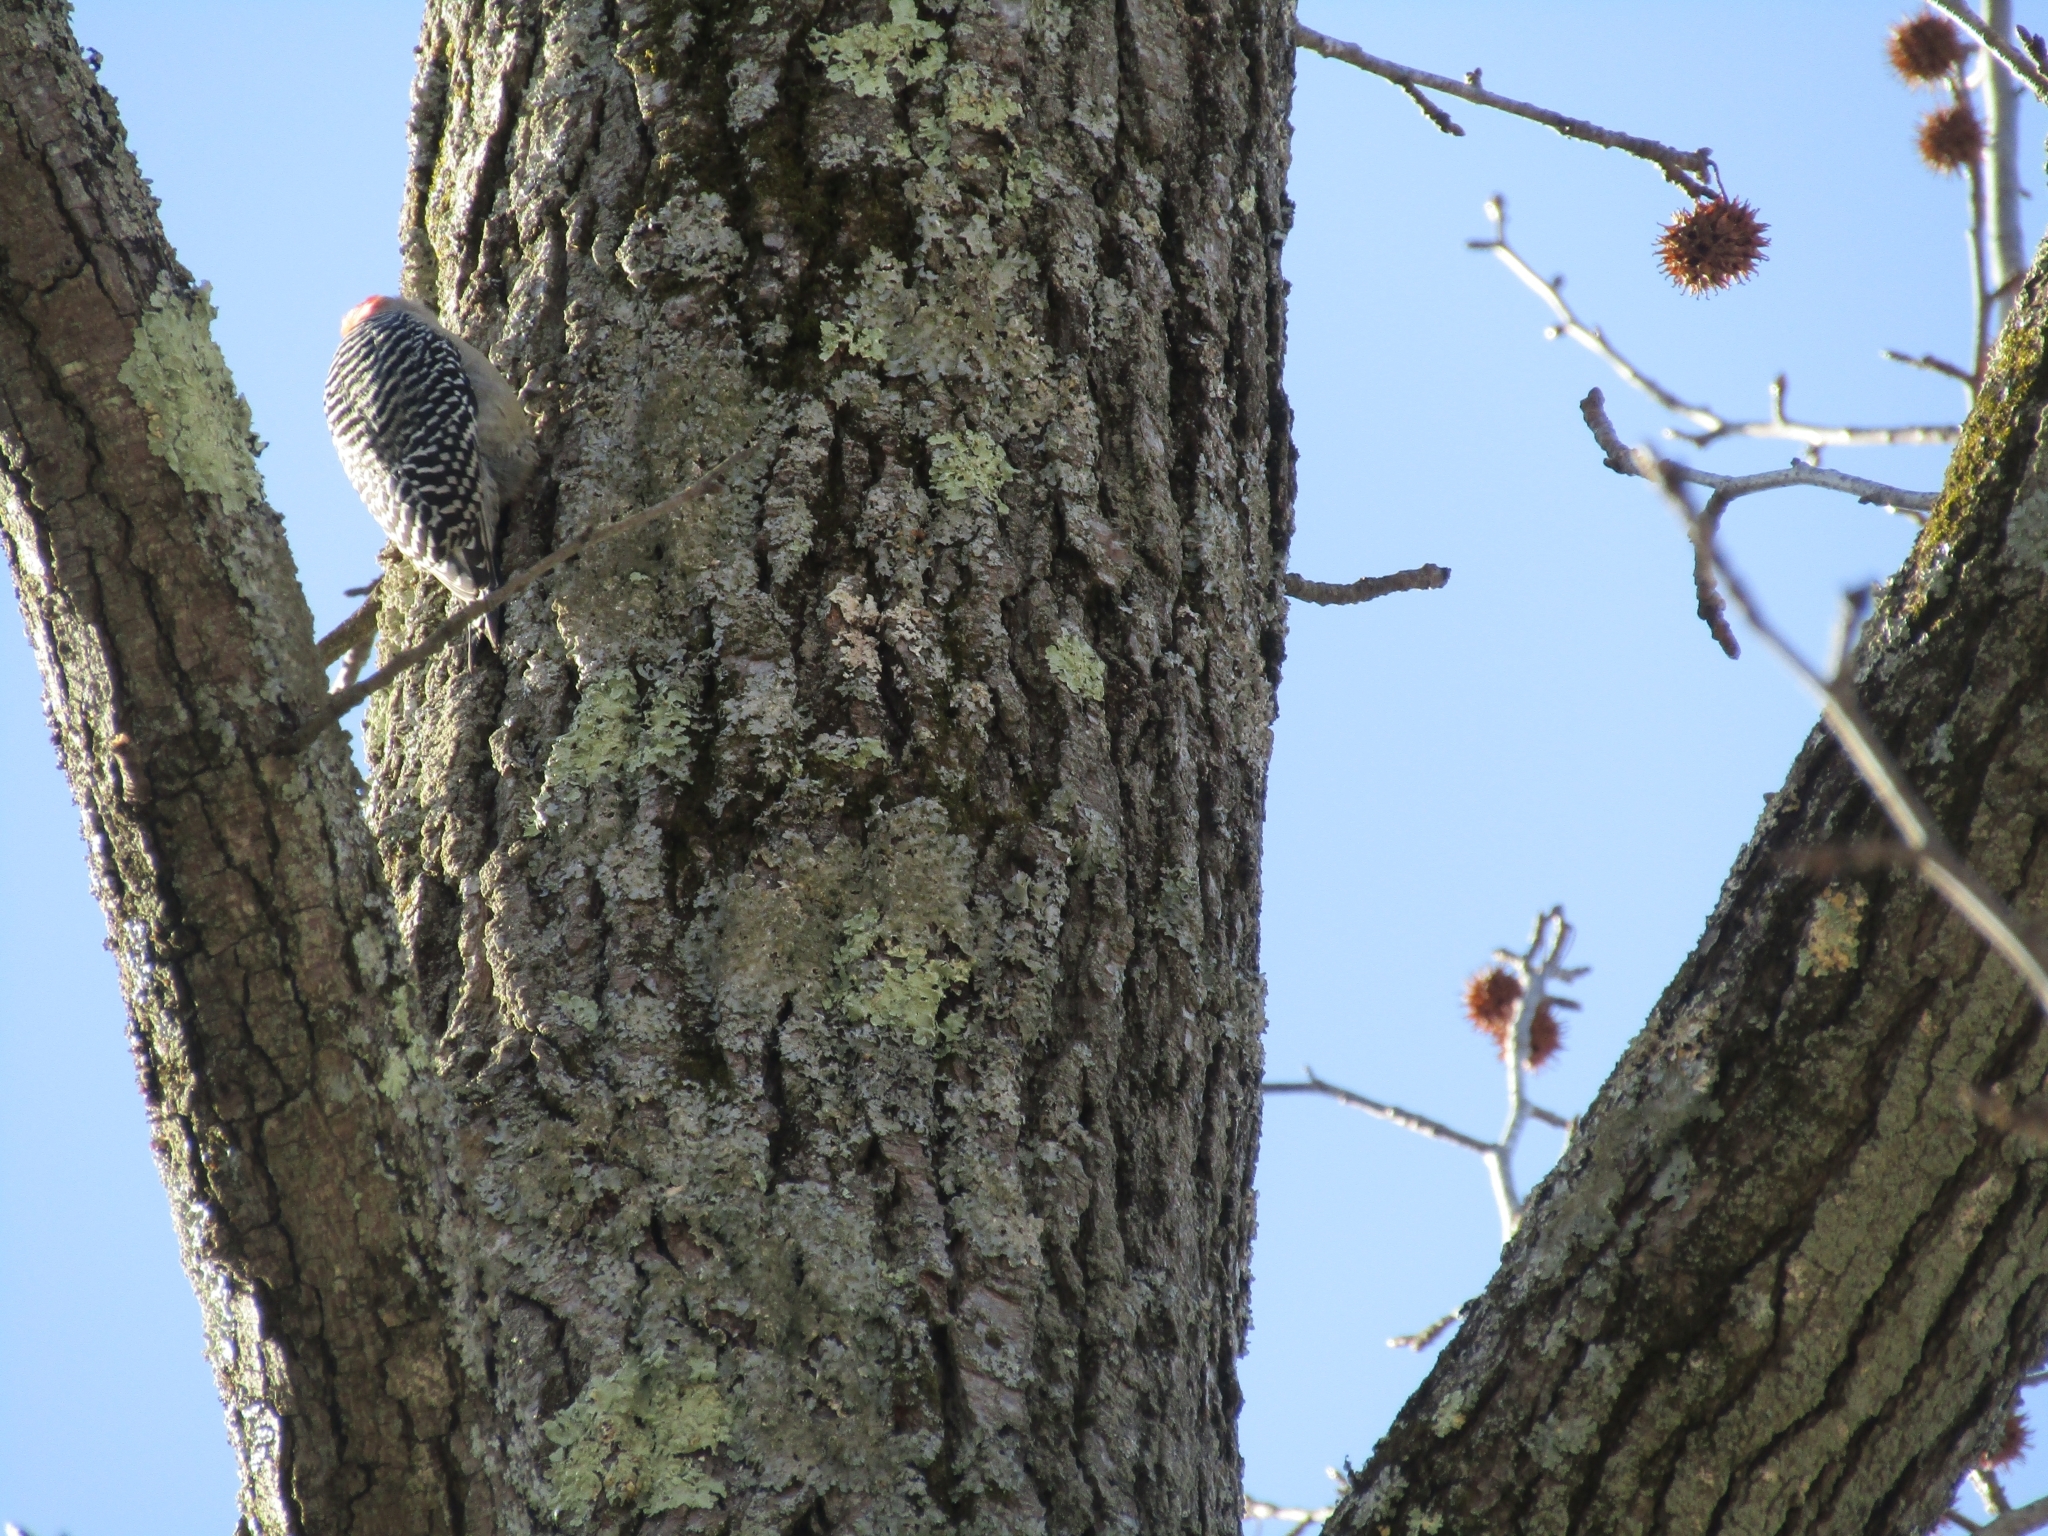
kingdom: Animalia
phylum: Chordata
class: Aves
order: Piciformes
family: Picidae
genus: Melanerpes
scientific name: Melanerpes carolinus
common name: Red-bellied woodpecker
